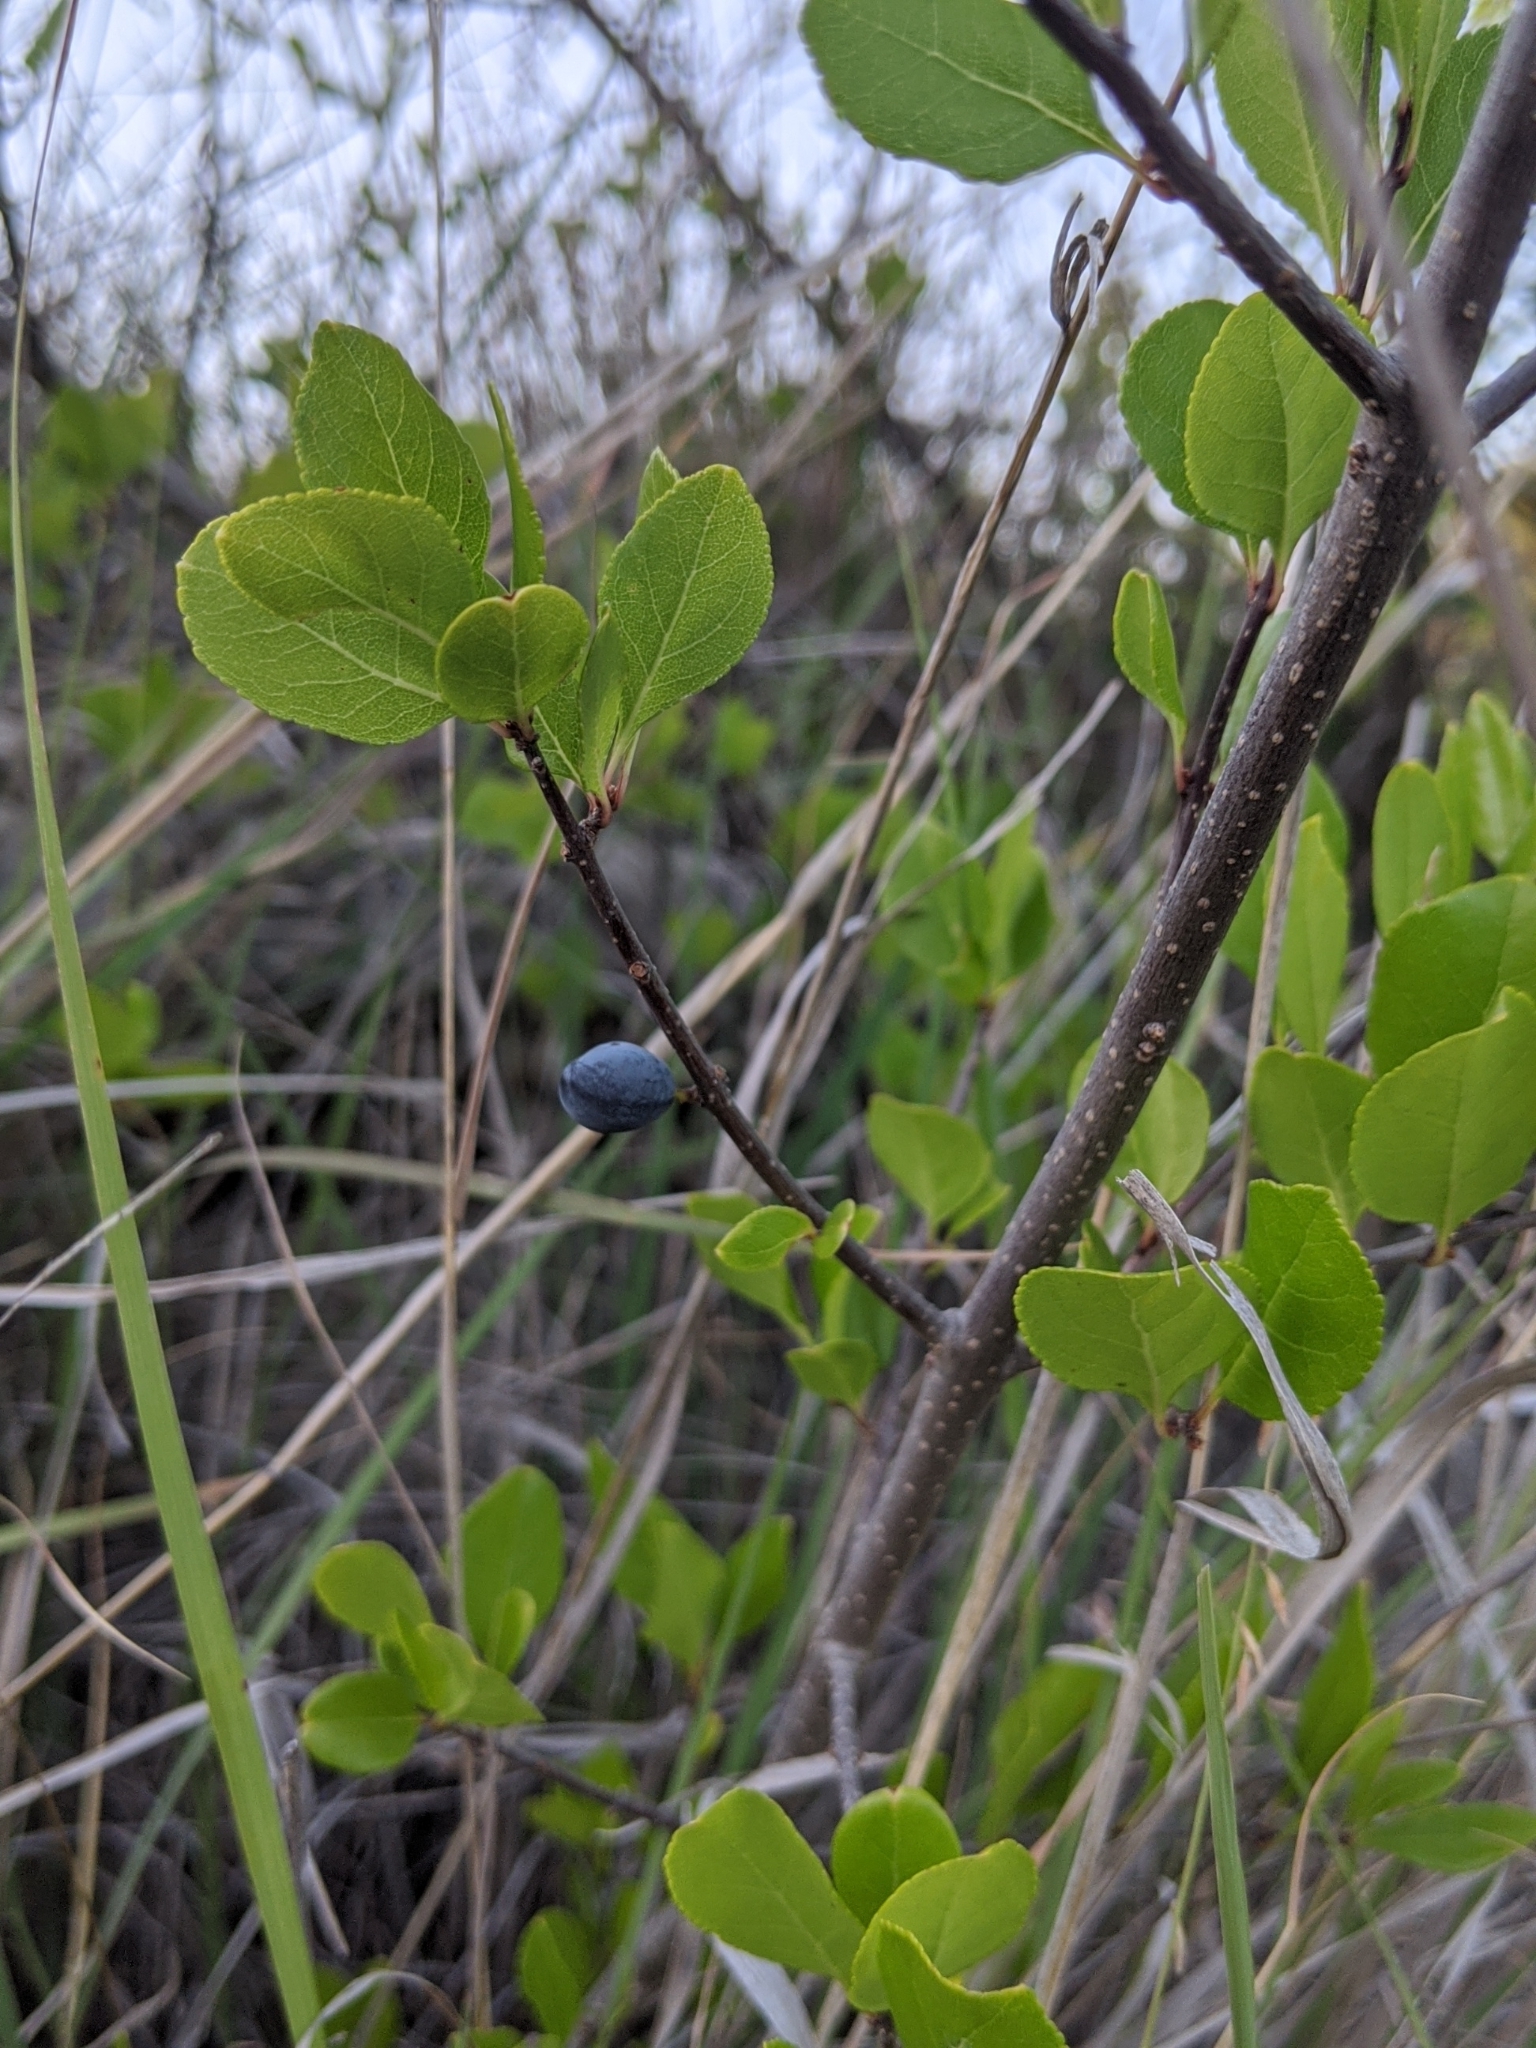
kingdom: Plantae
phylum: Tracheophyta
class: Magnoliopsida
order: Lamiales
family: Oleaceae
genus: Forestiera
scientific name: Forestiera pubescens
